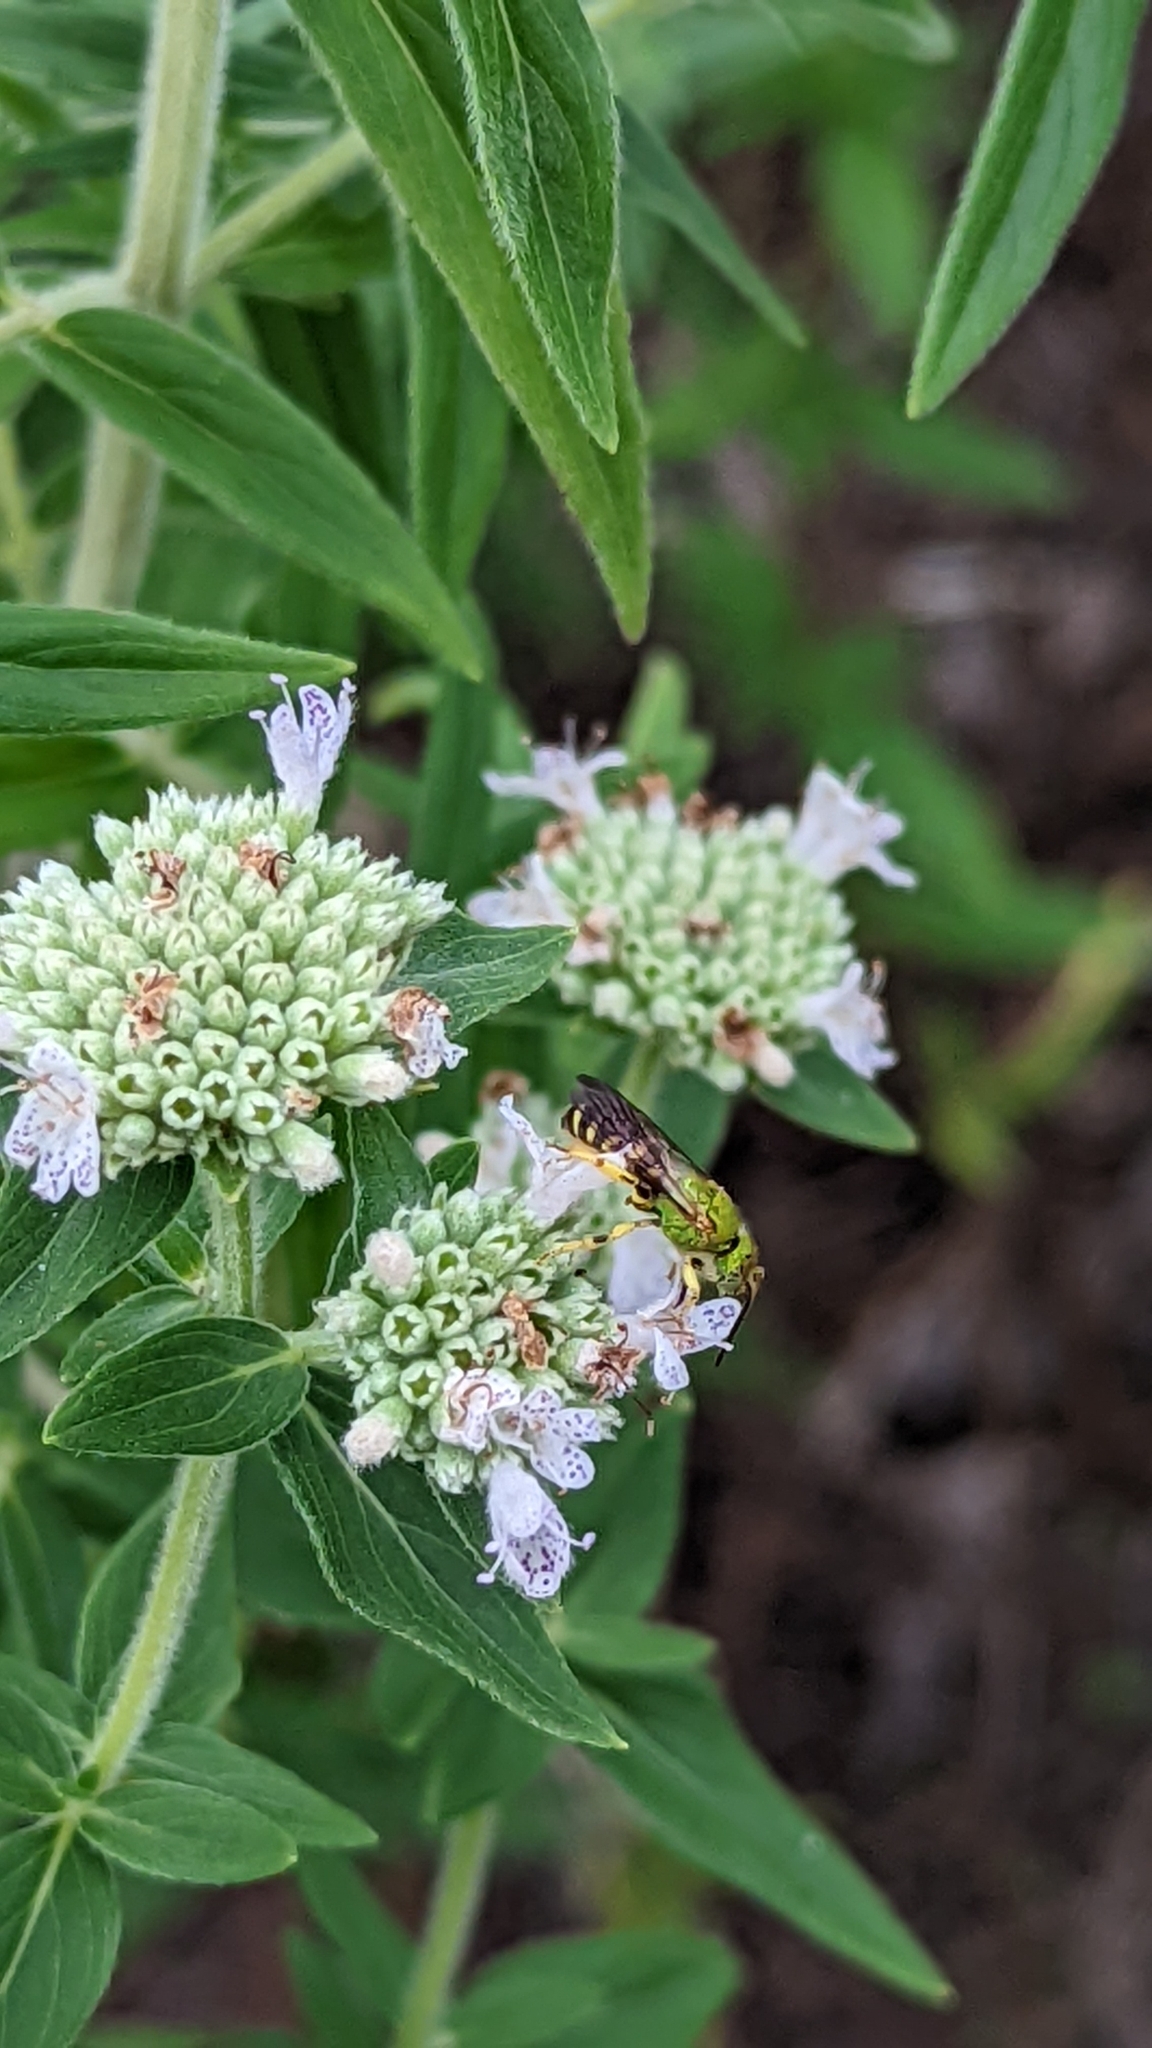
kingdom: Animalia
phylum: Arthropoda
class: Insecta
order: Hymenoptera
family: Halictidae
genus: Agapostemon
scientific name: Agapostemon virescens
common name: Bicolored striped sweat bee
